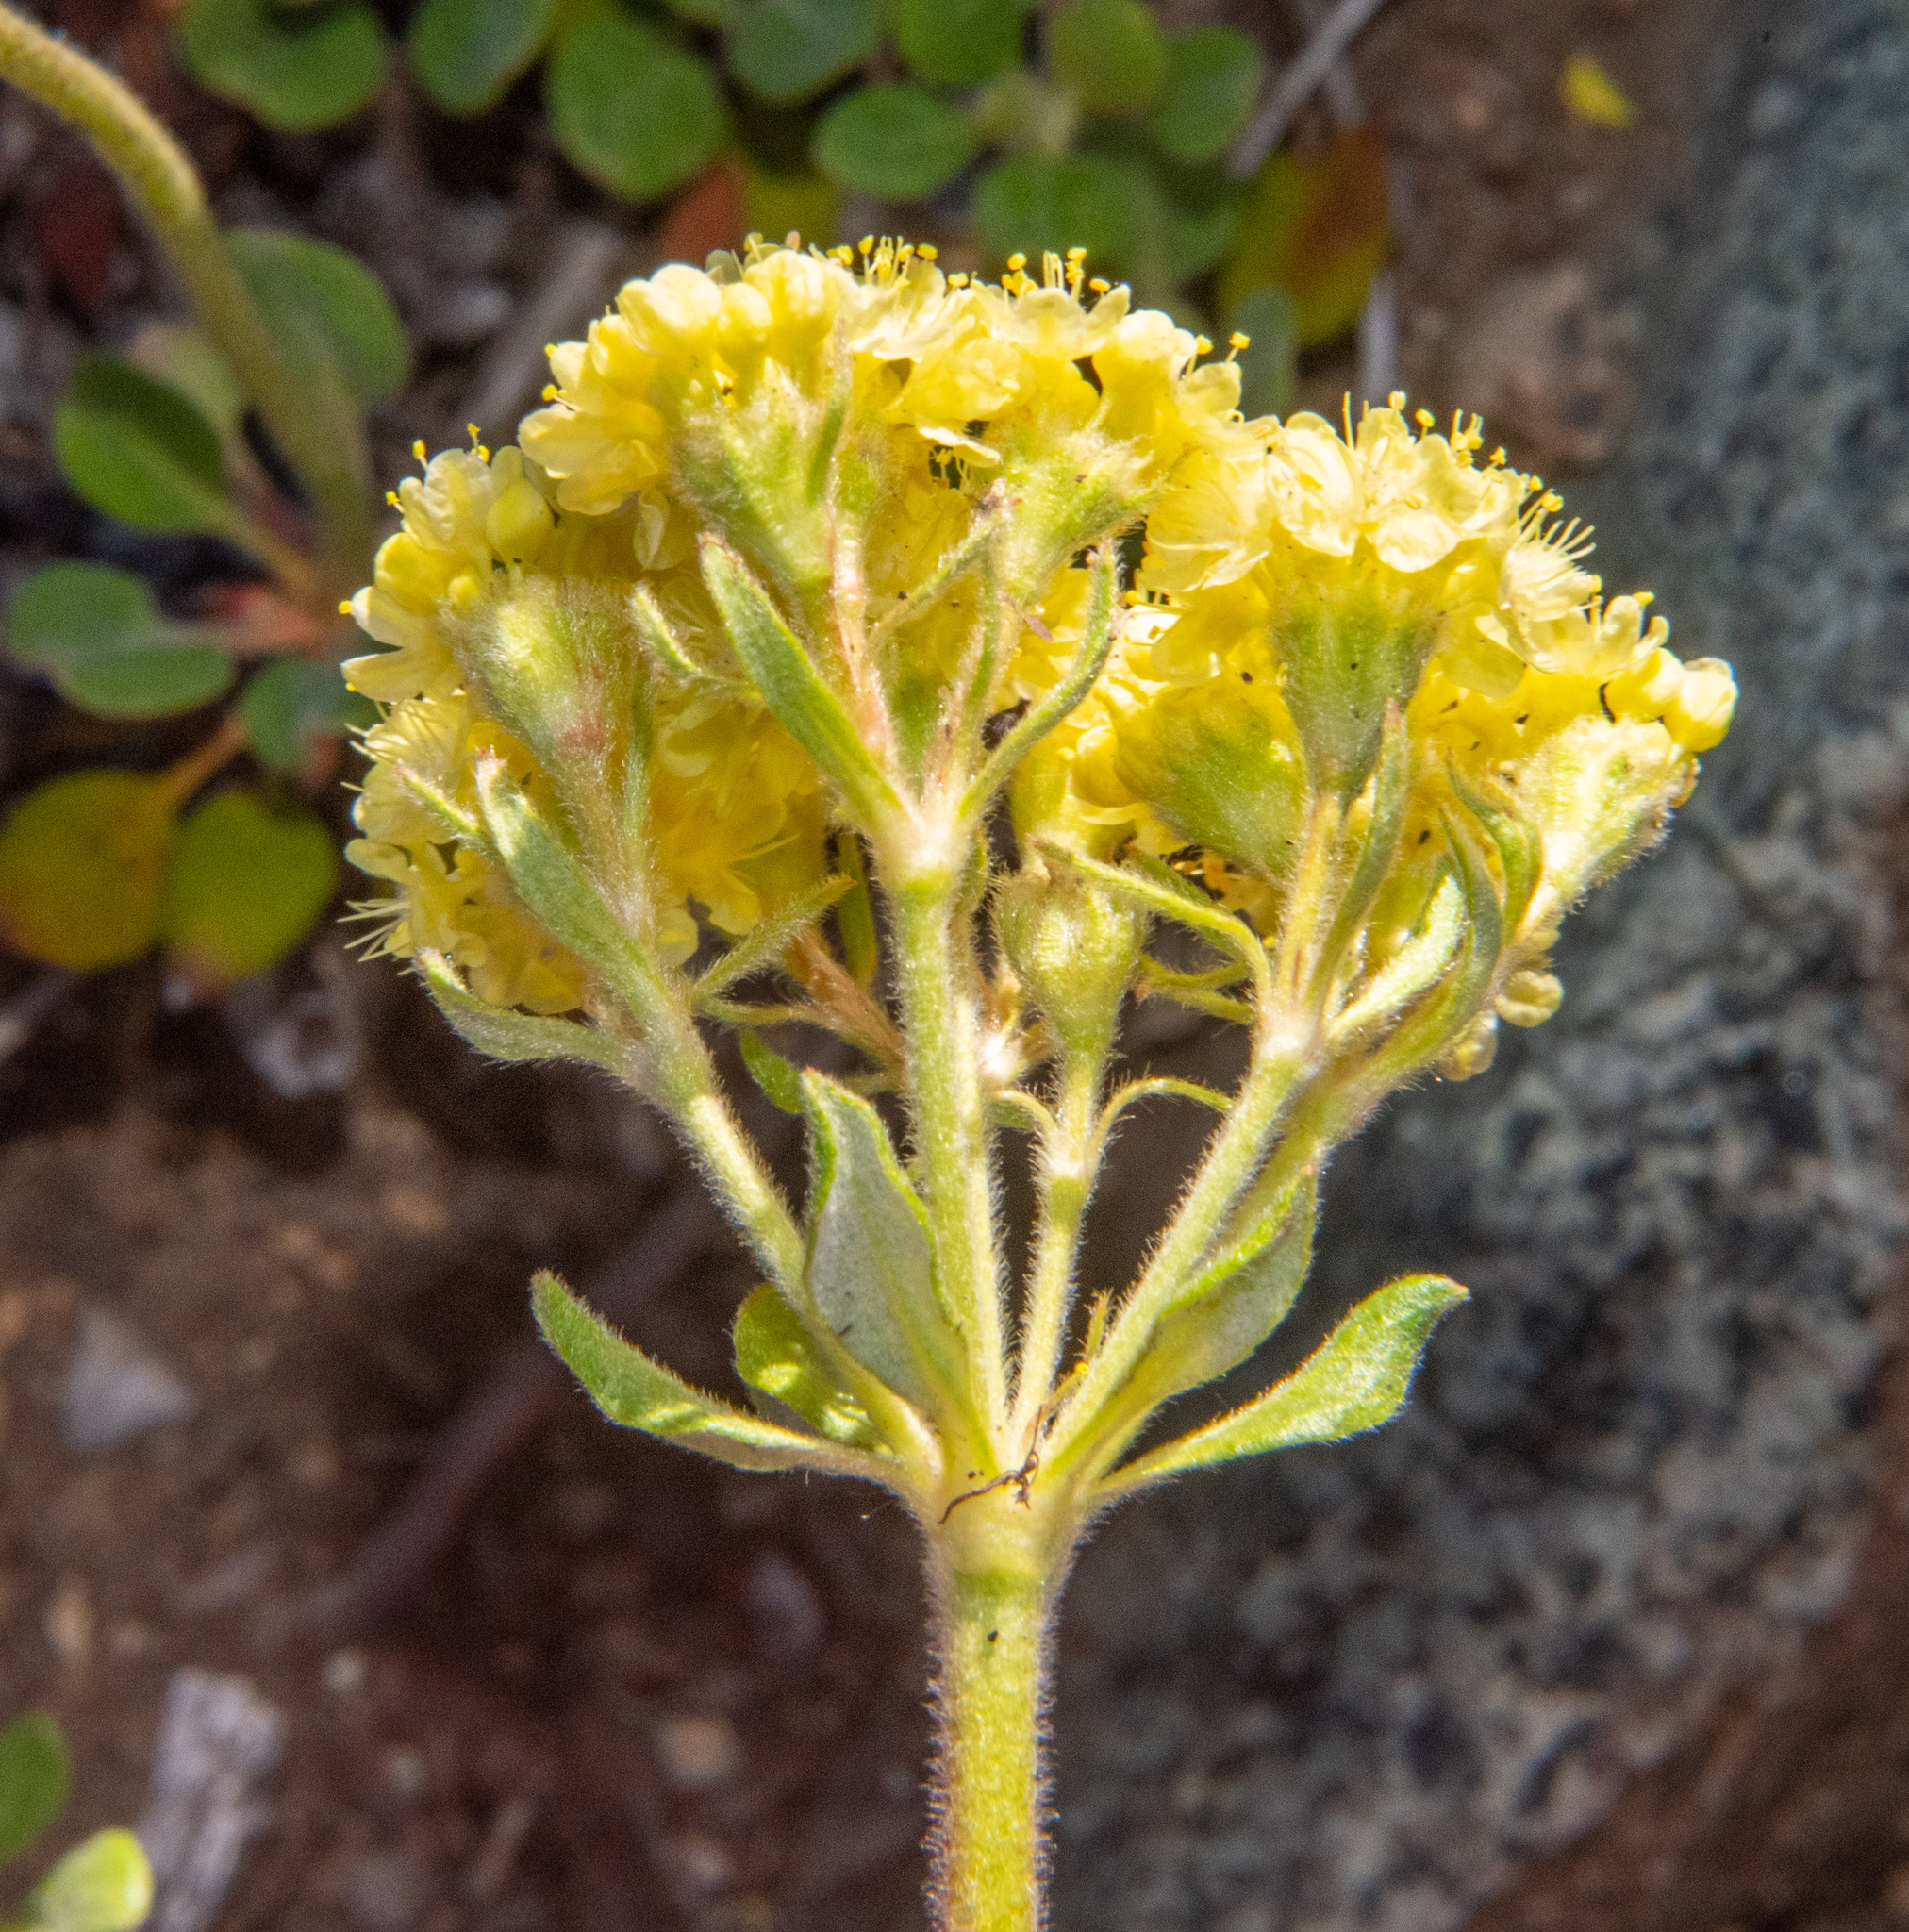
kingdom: Plantae
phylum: Tracheophyta
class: Magnoliopsida
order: Caryophyllales
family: Polygonaceae
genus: Eriogonum
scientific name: Eriogonum umbellatum
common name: Sulfur-buckwheat
